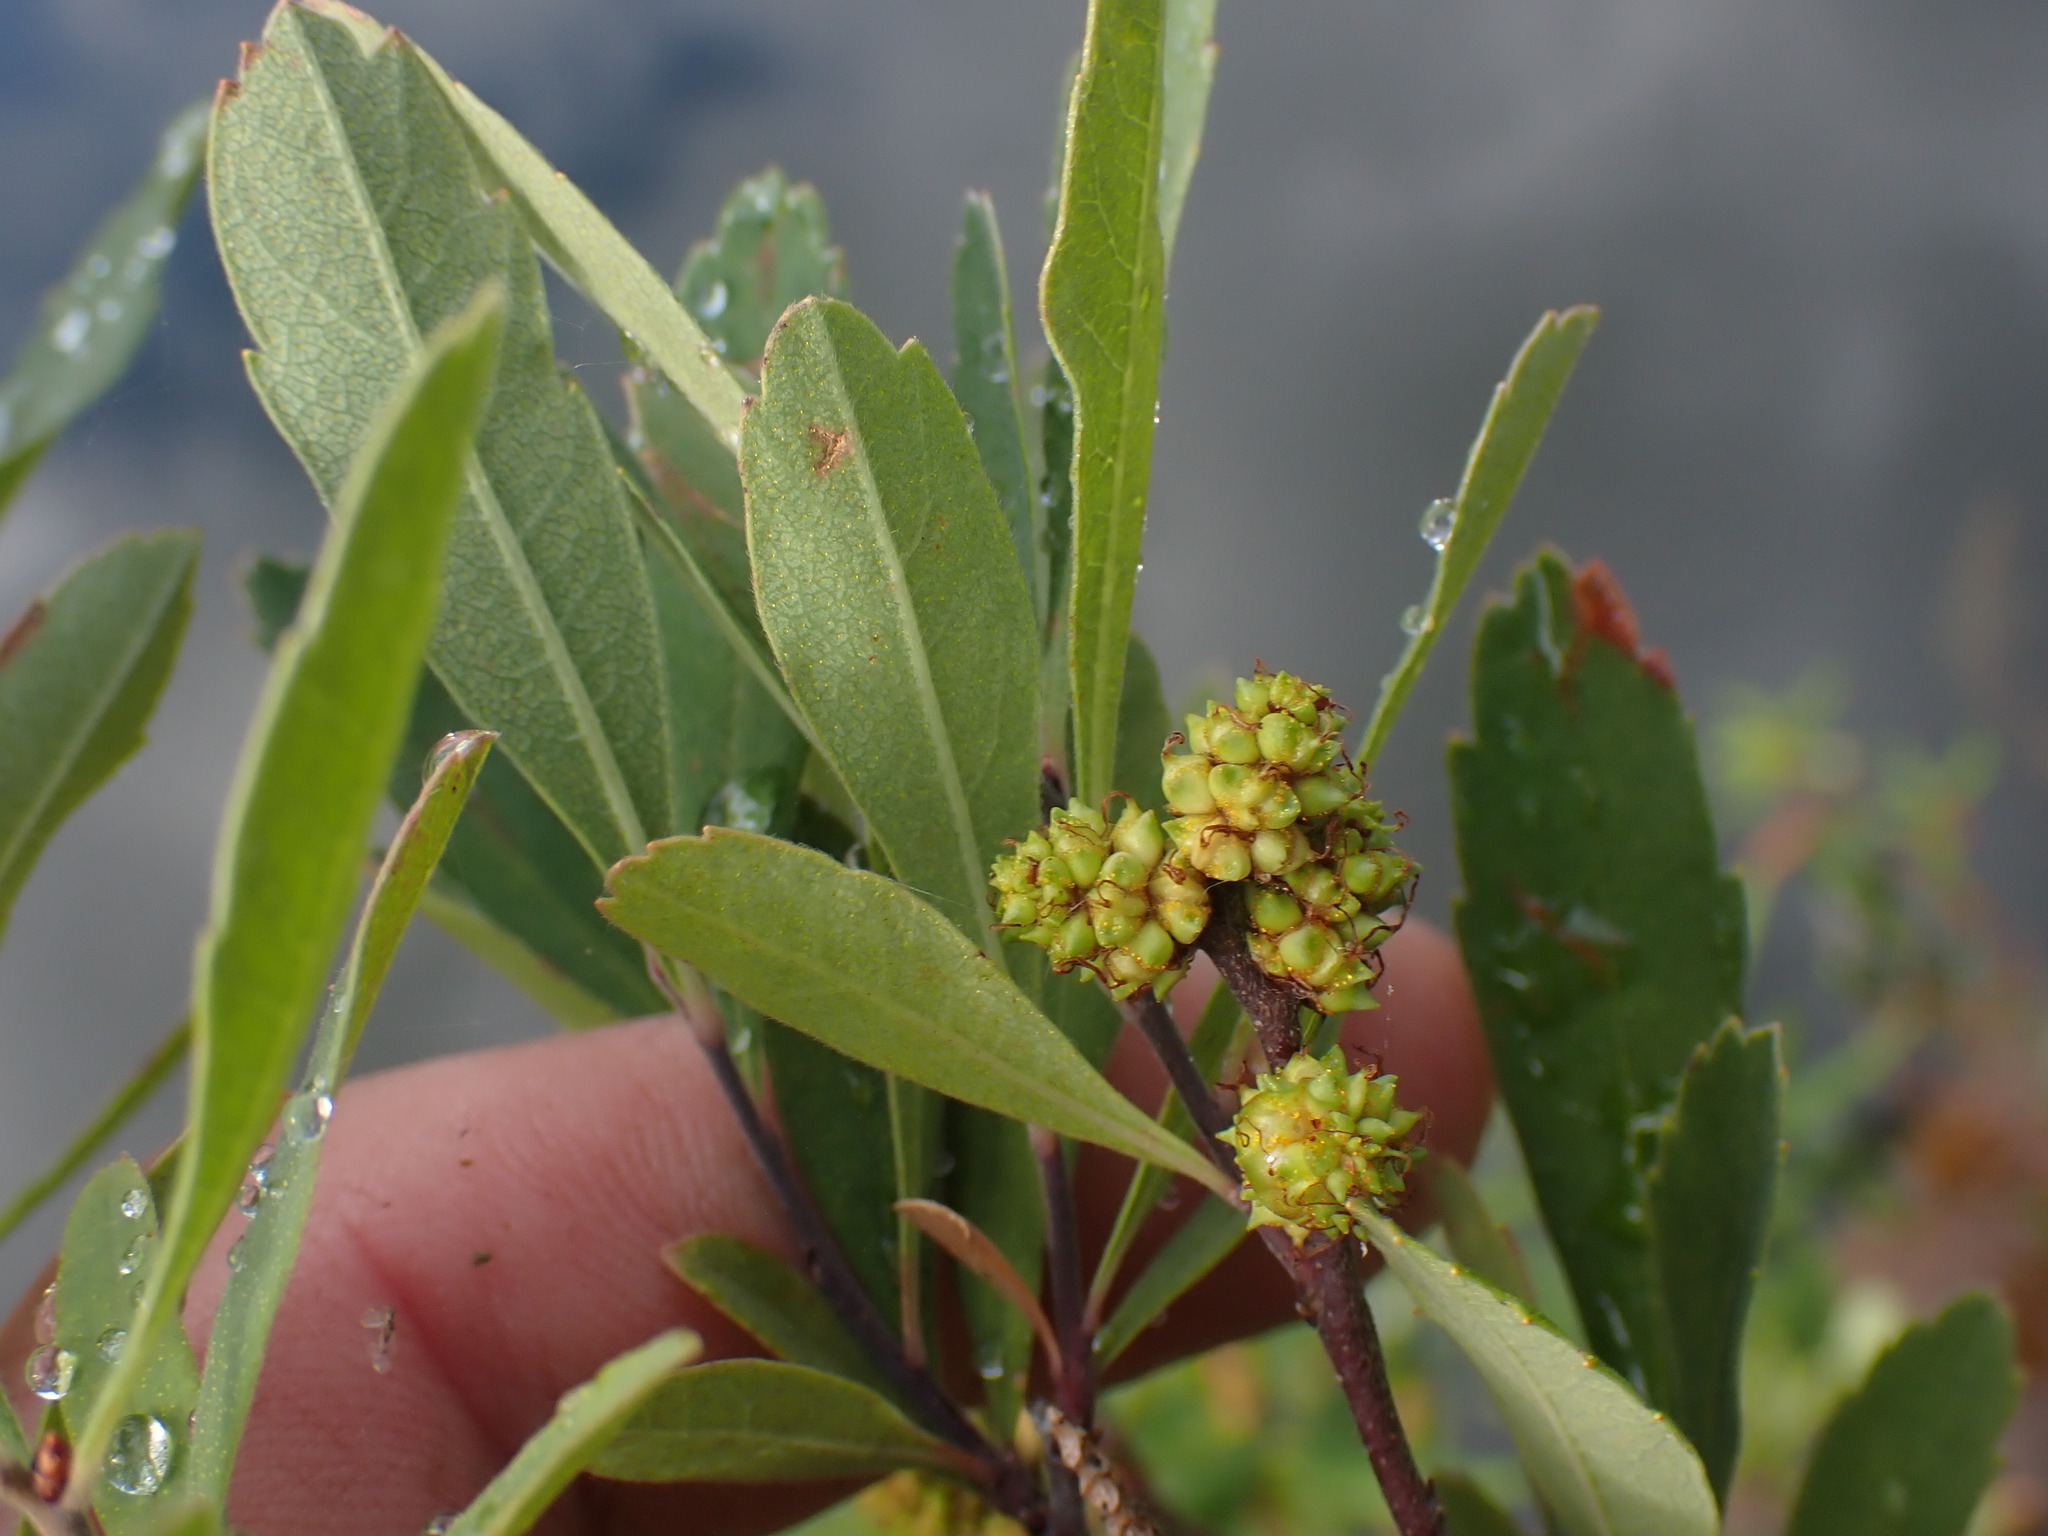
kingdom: Plantae
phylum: Tracheophyta
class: Magnoliopsida
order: Fagales
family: Myricaceae
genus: Myrica
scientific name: Myrica gale
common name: Sweet gale
